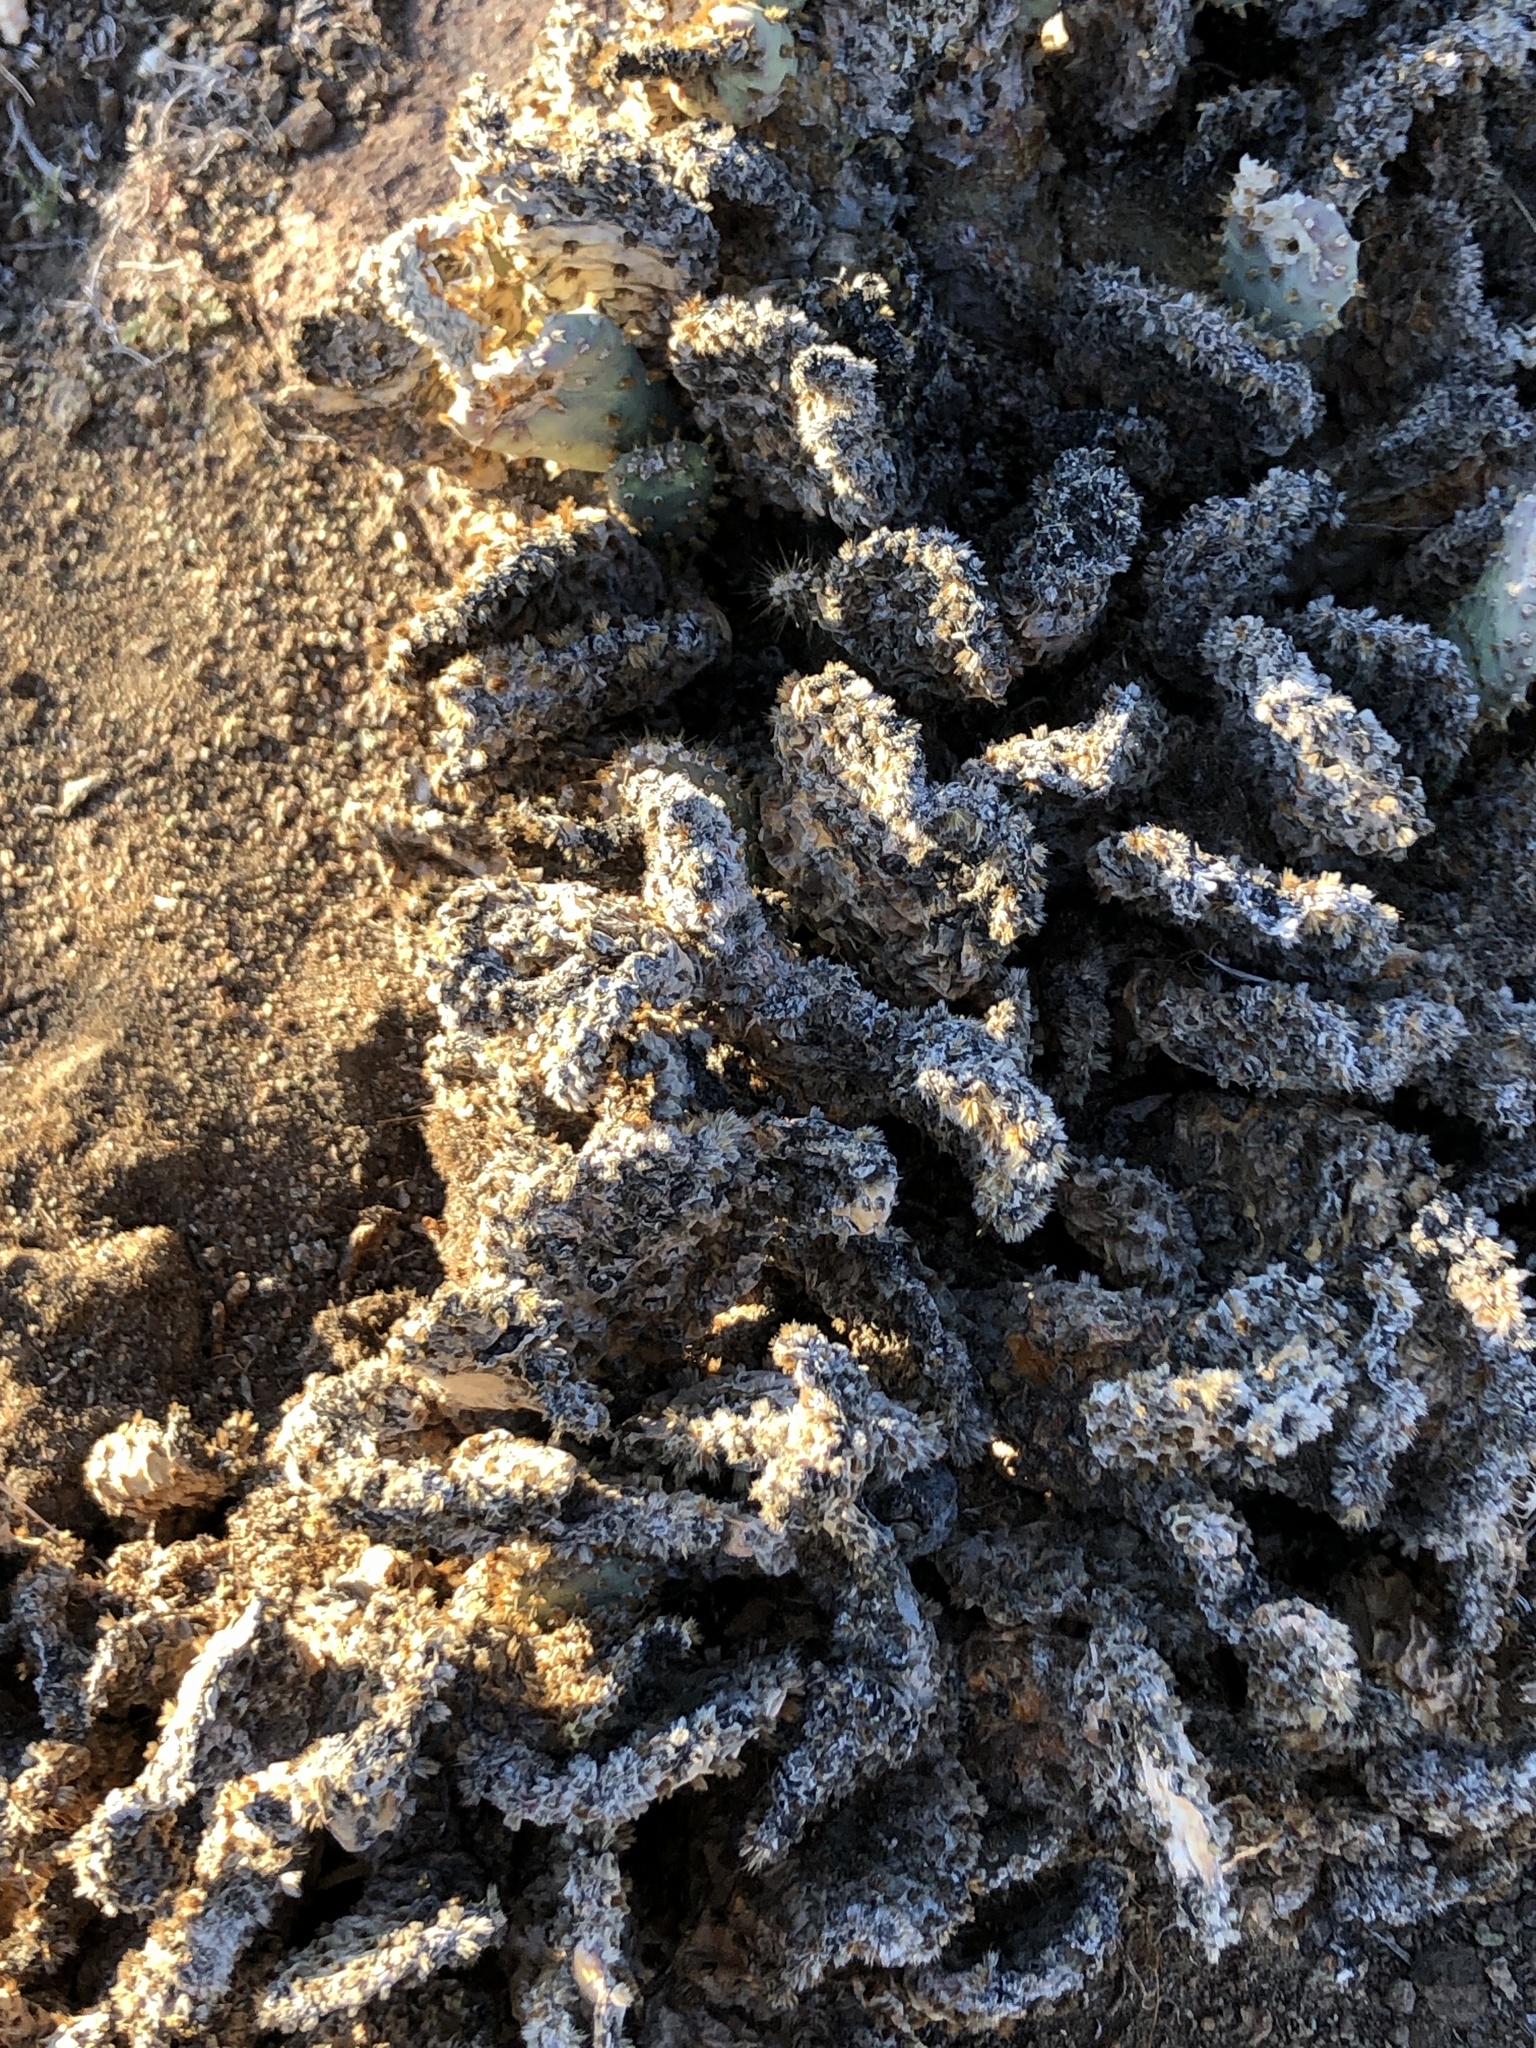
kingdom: Plantae
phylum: Tracheophyta
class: Magnoliopsida
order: Caryophyllales
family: Cactaceae
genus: Opuntia
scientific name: Opuntia basilaris
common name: Beavertail prickly-pear
